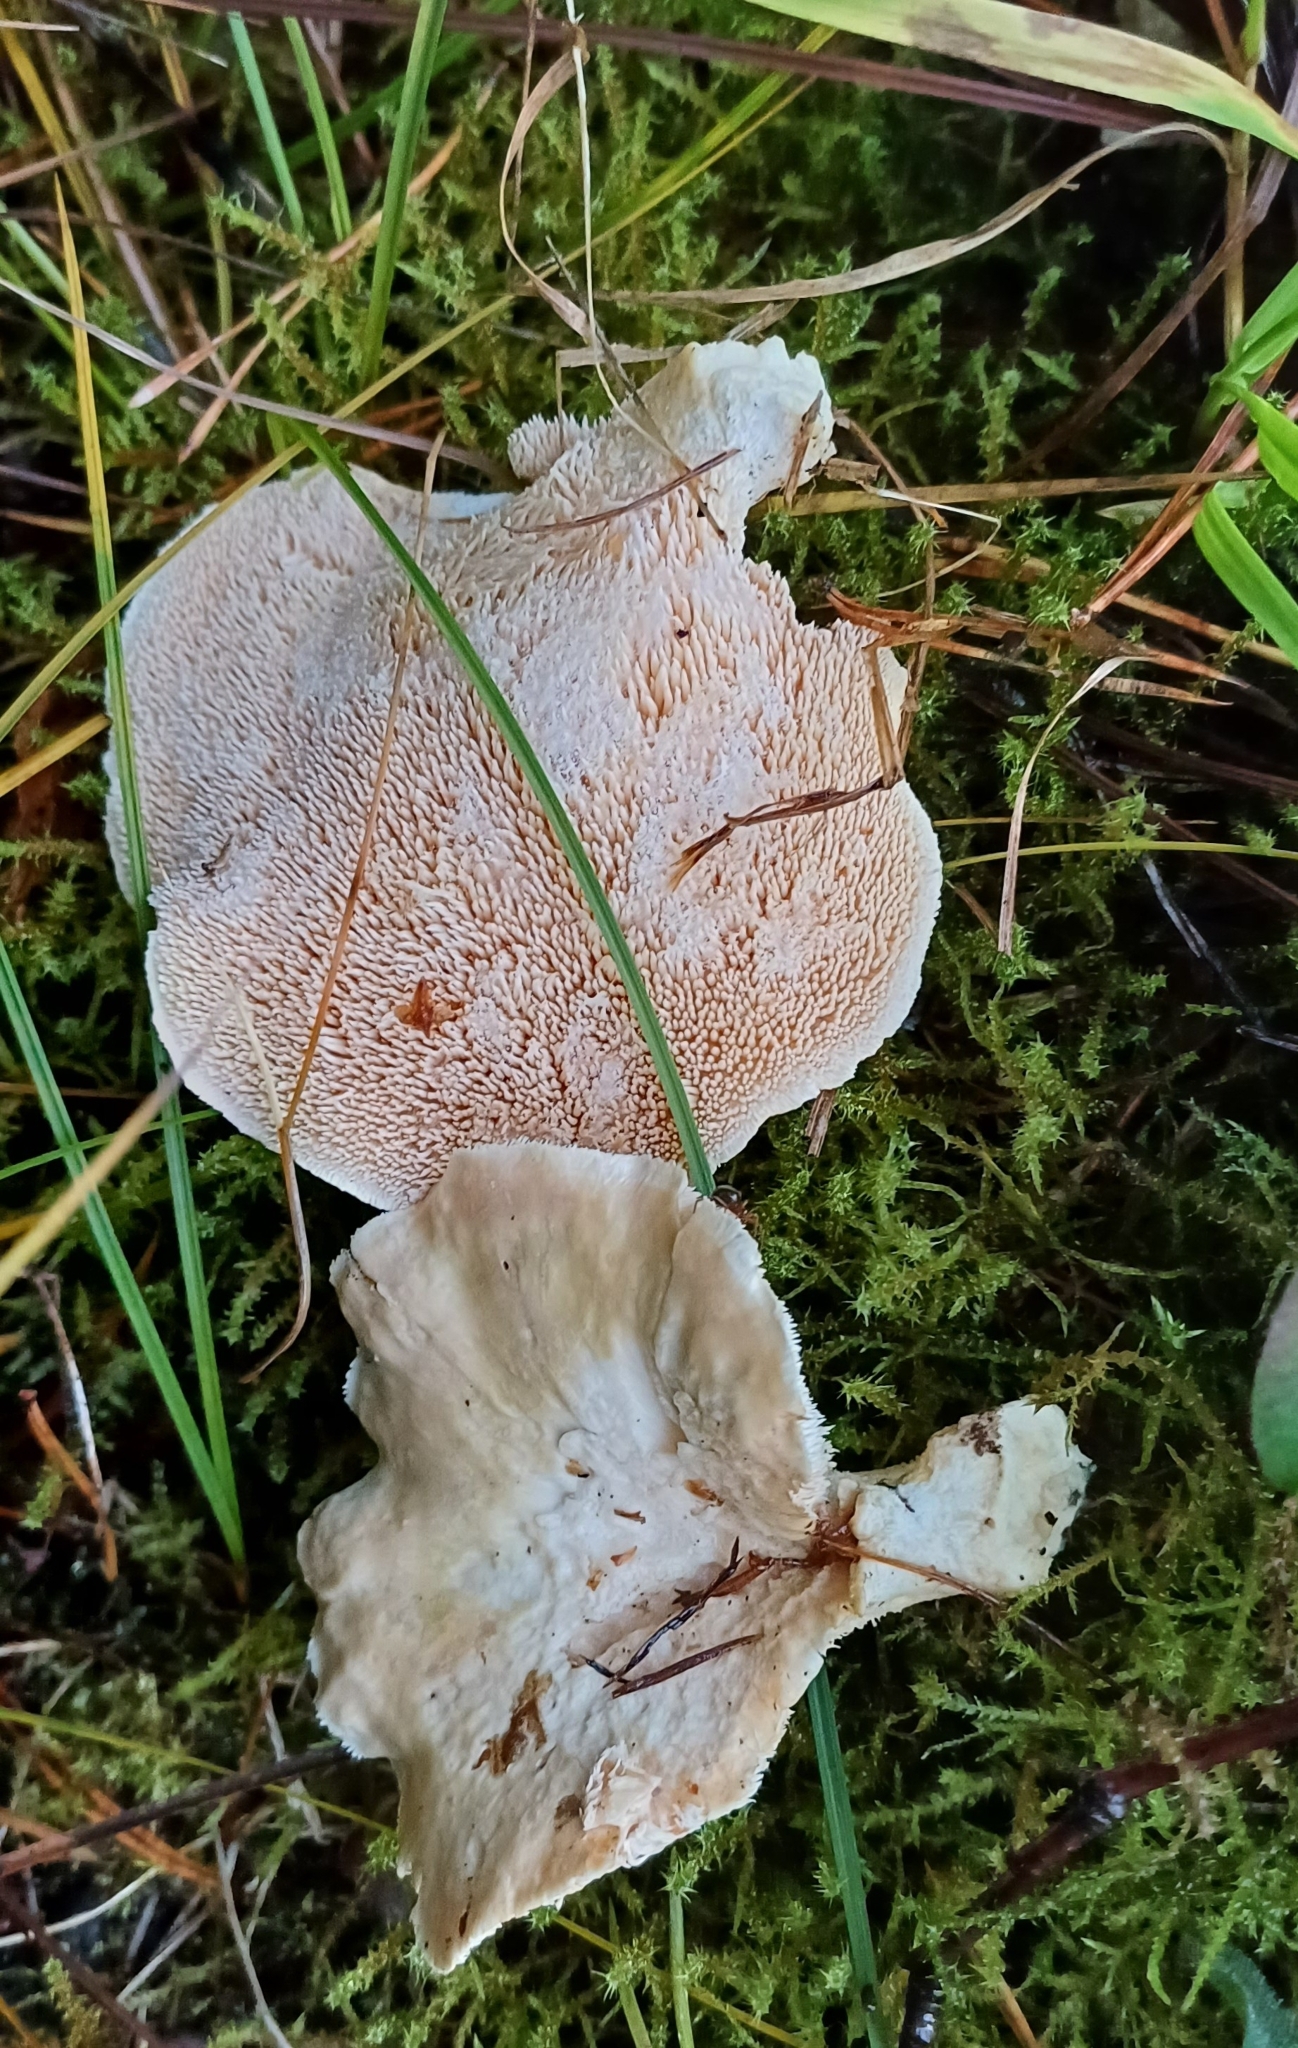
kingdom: Fungi
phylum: Basidiomycota
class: Agaricomycetes
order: Cantharellales
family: Hydnaceae
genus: Hydnum
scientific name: Hydnum repandum
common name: Wood hedgehog
